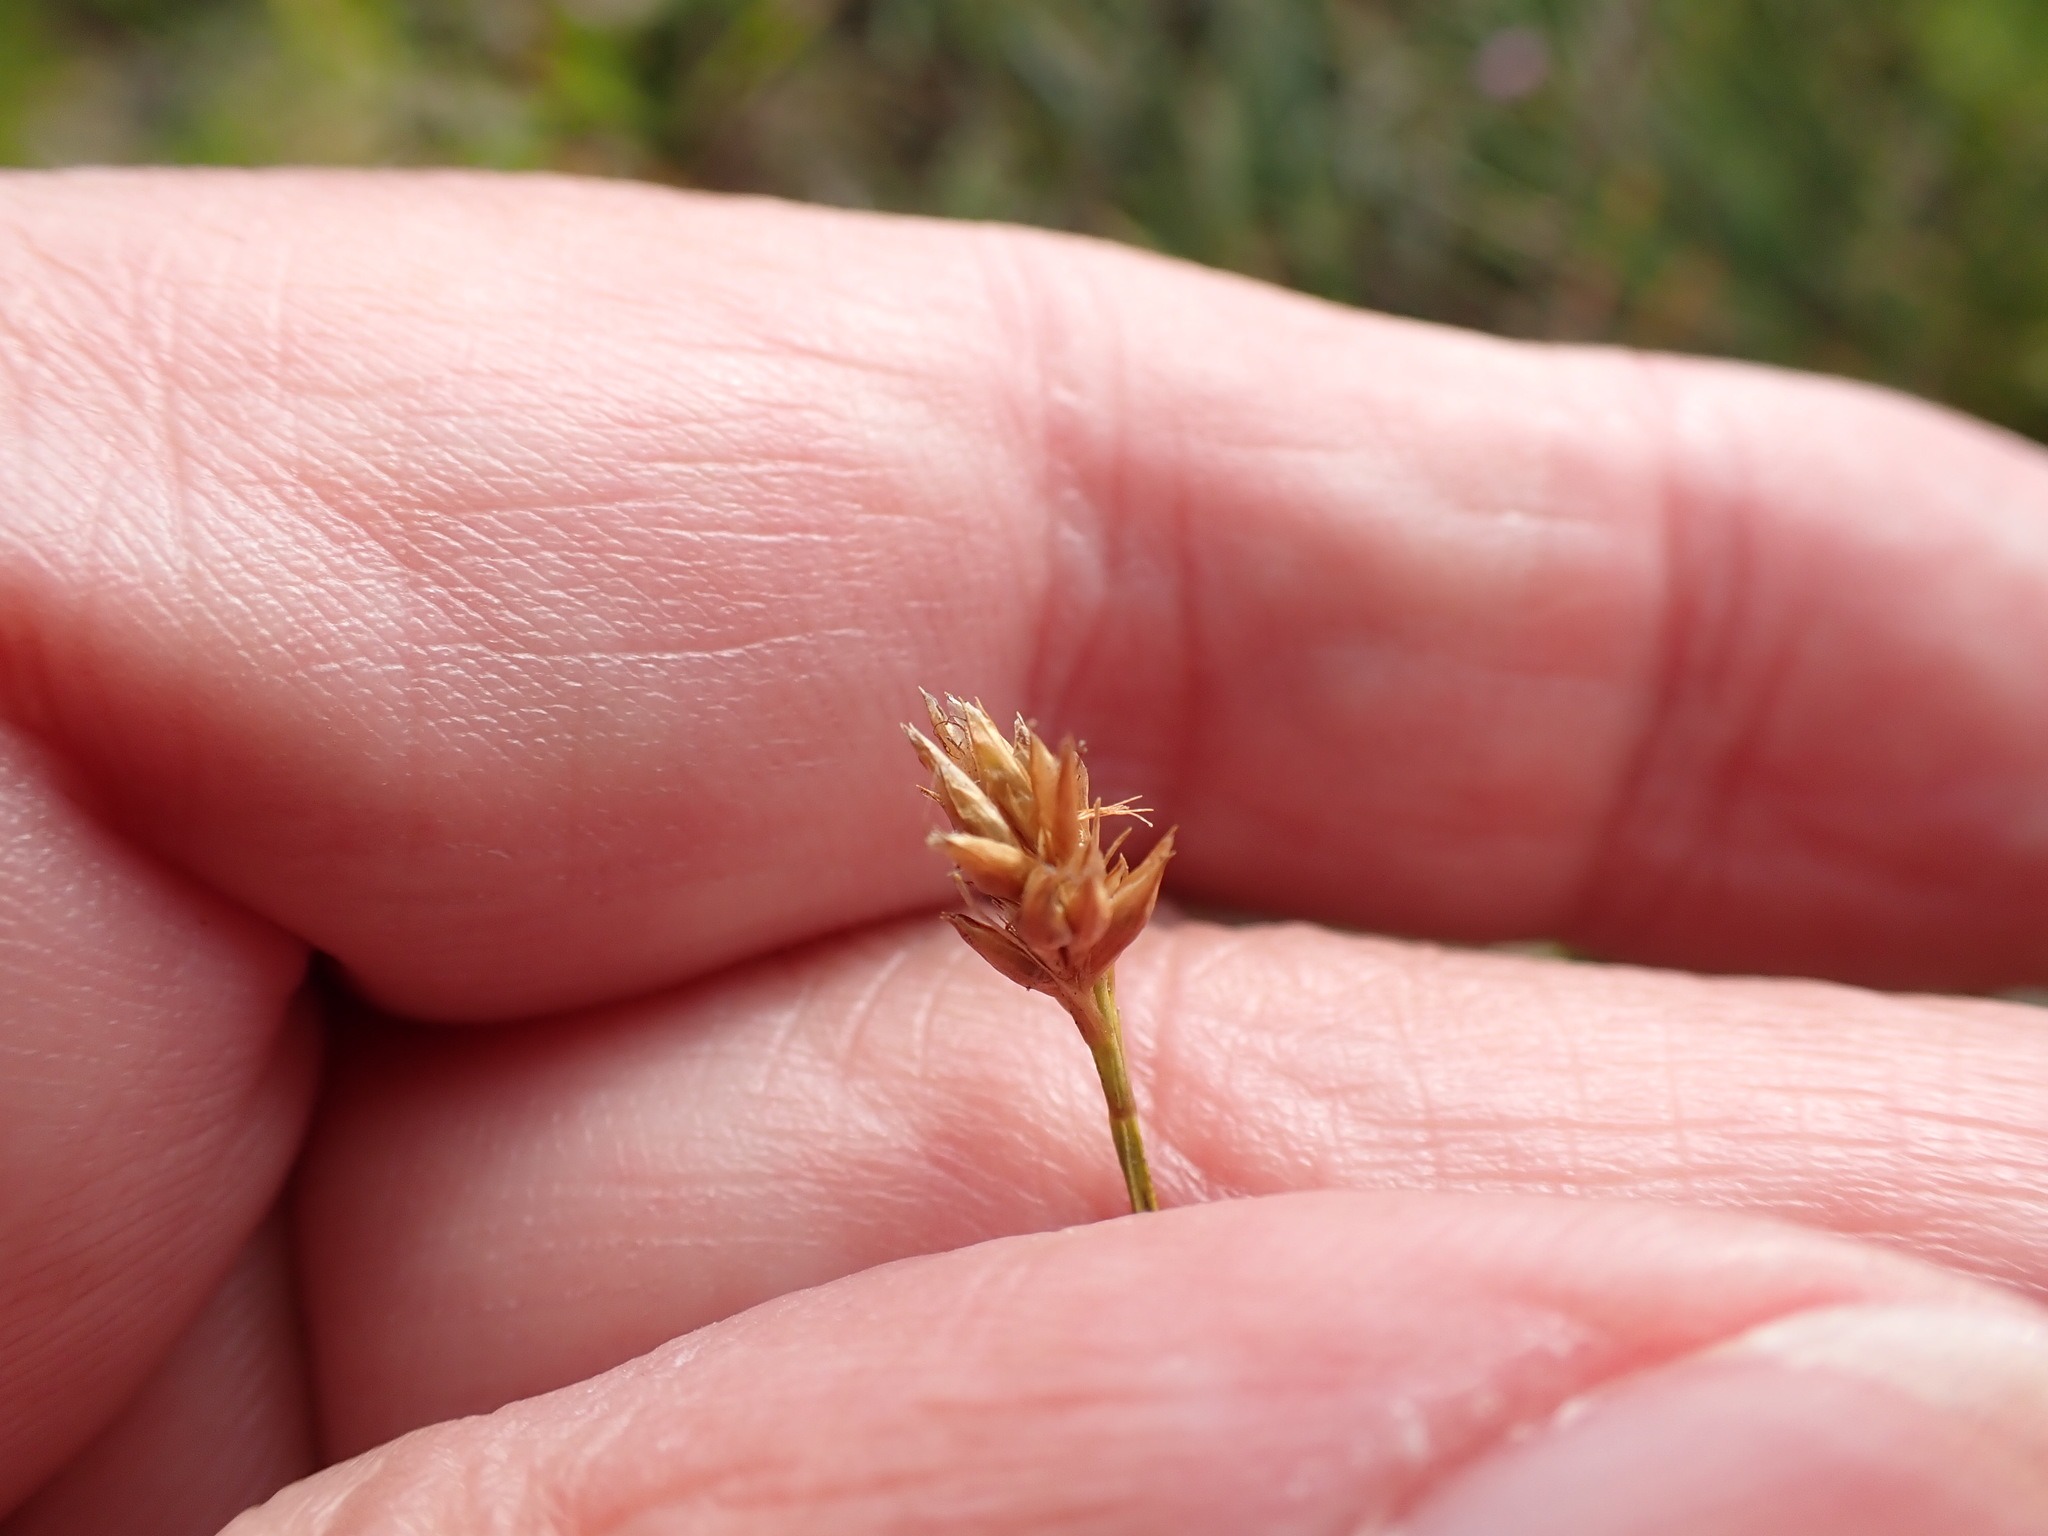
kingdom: Plantae
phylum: Tracheophyta
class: Liliopsida
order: Poales
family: Cyperaceae
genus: Rhynchospora
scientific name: Rhynchospora alba
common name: White beak-sedge
